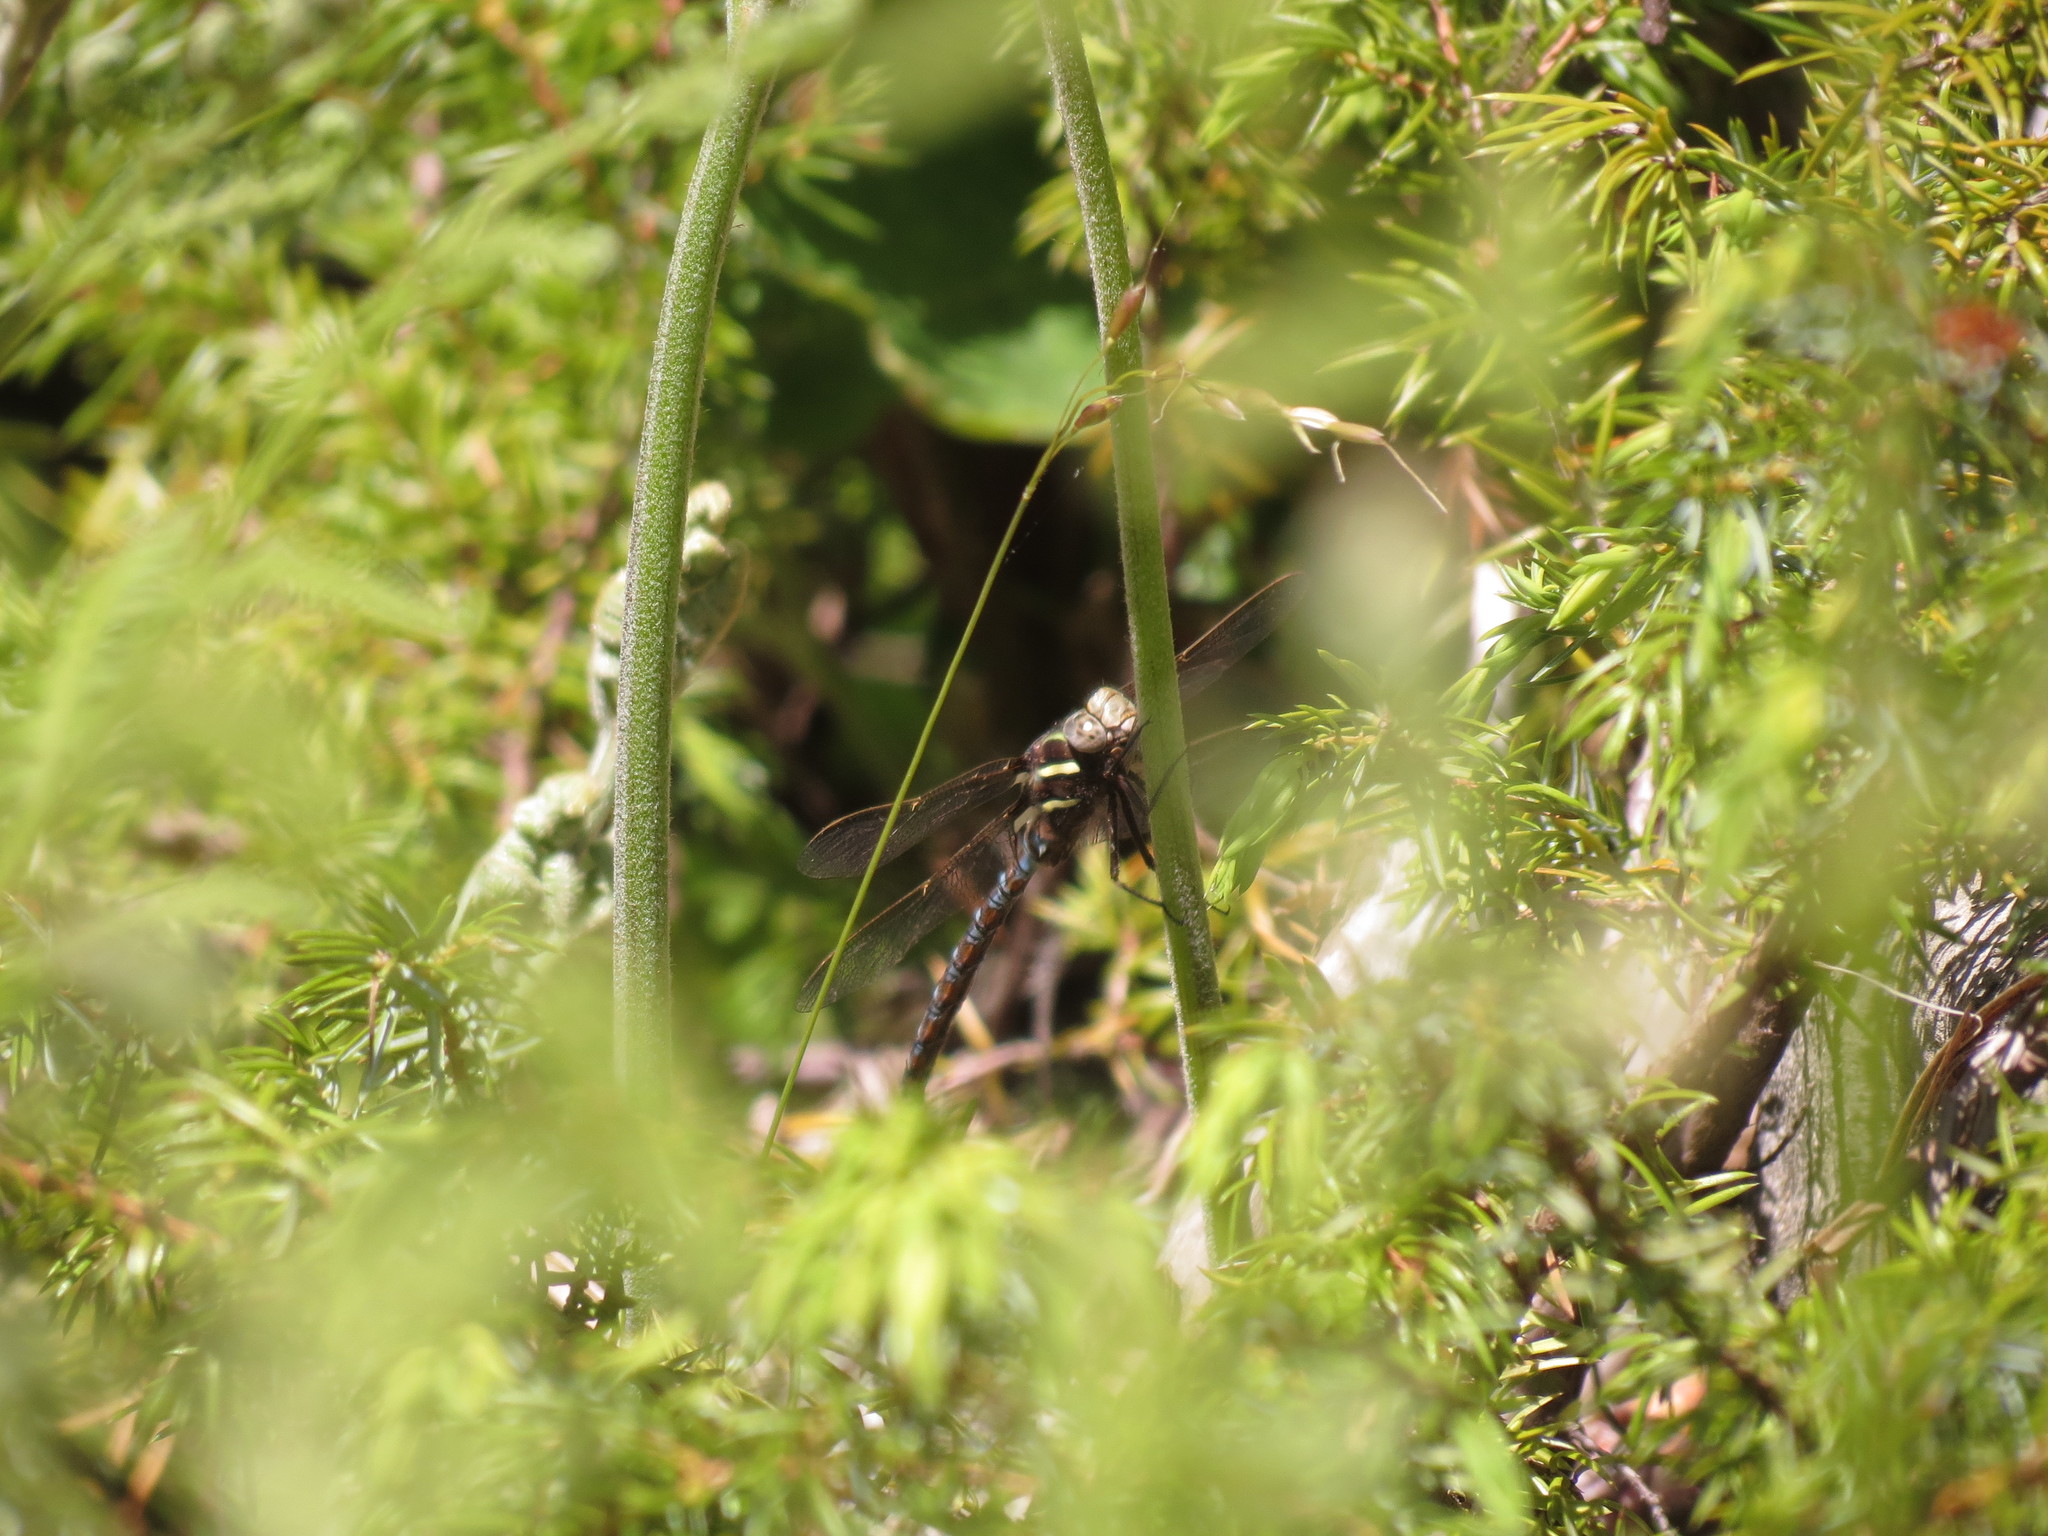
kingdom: Animalia
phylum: Arthropoda
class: Insecta
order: Odonata
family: Aeshnidae
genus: Basiaeschna
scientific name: Basiaeschna janata
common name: Springtime darner
